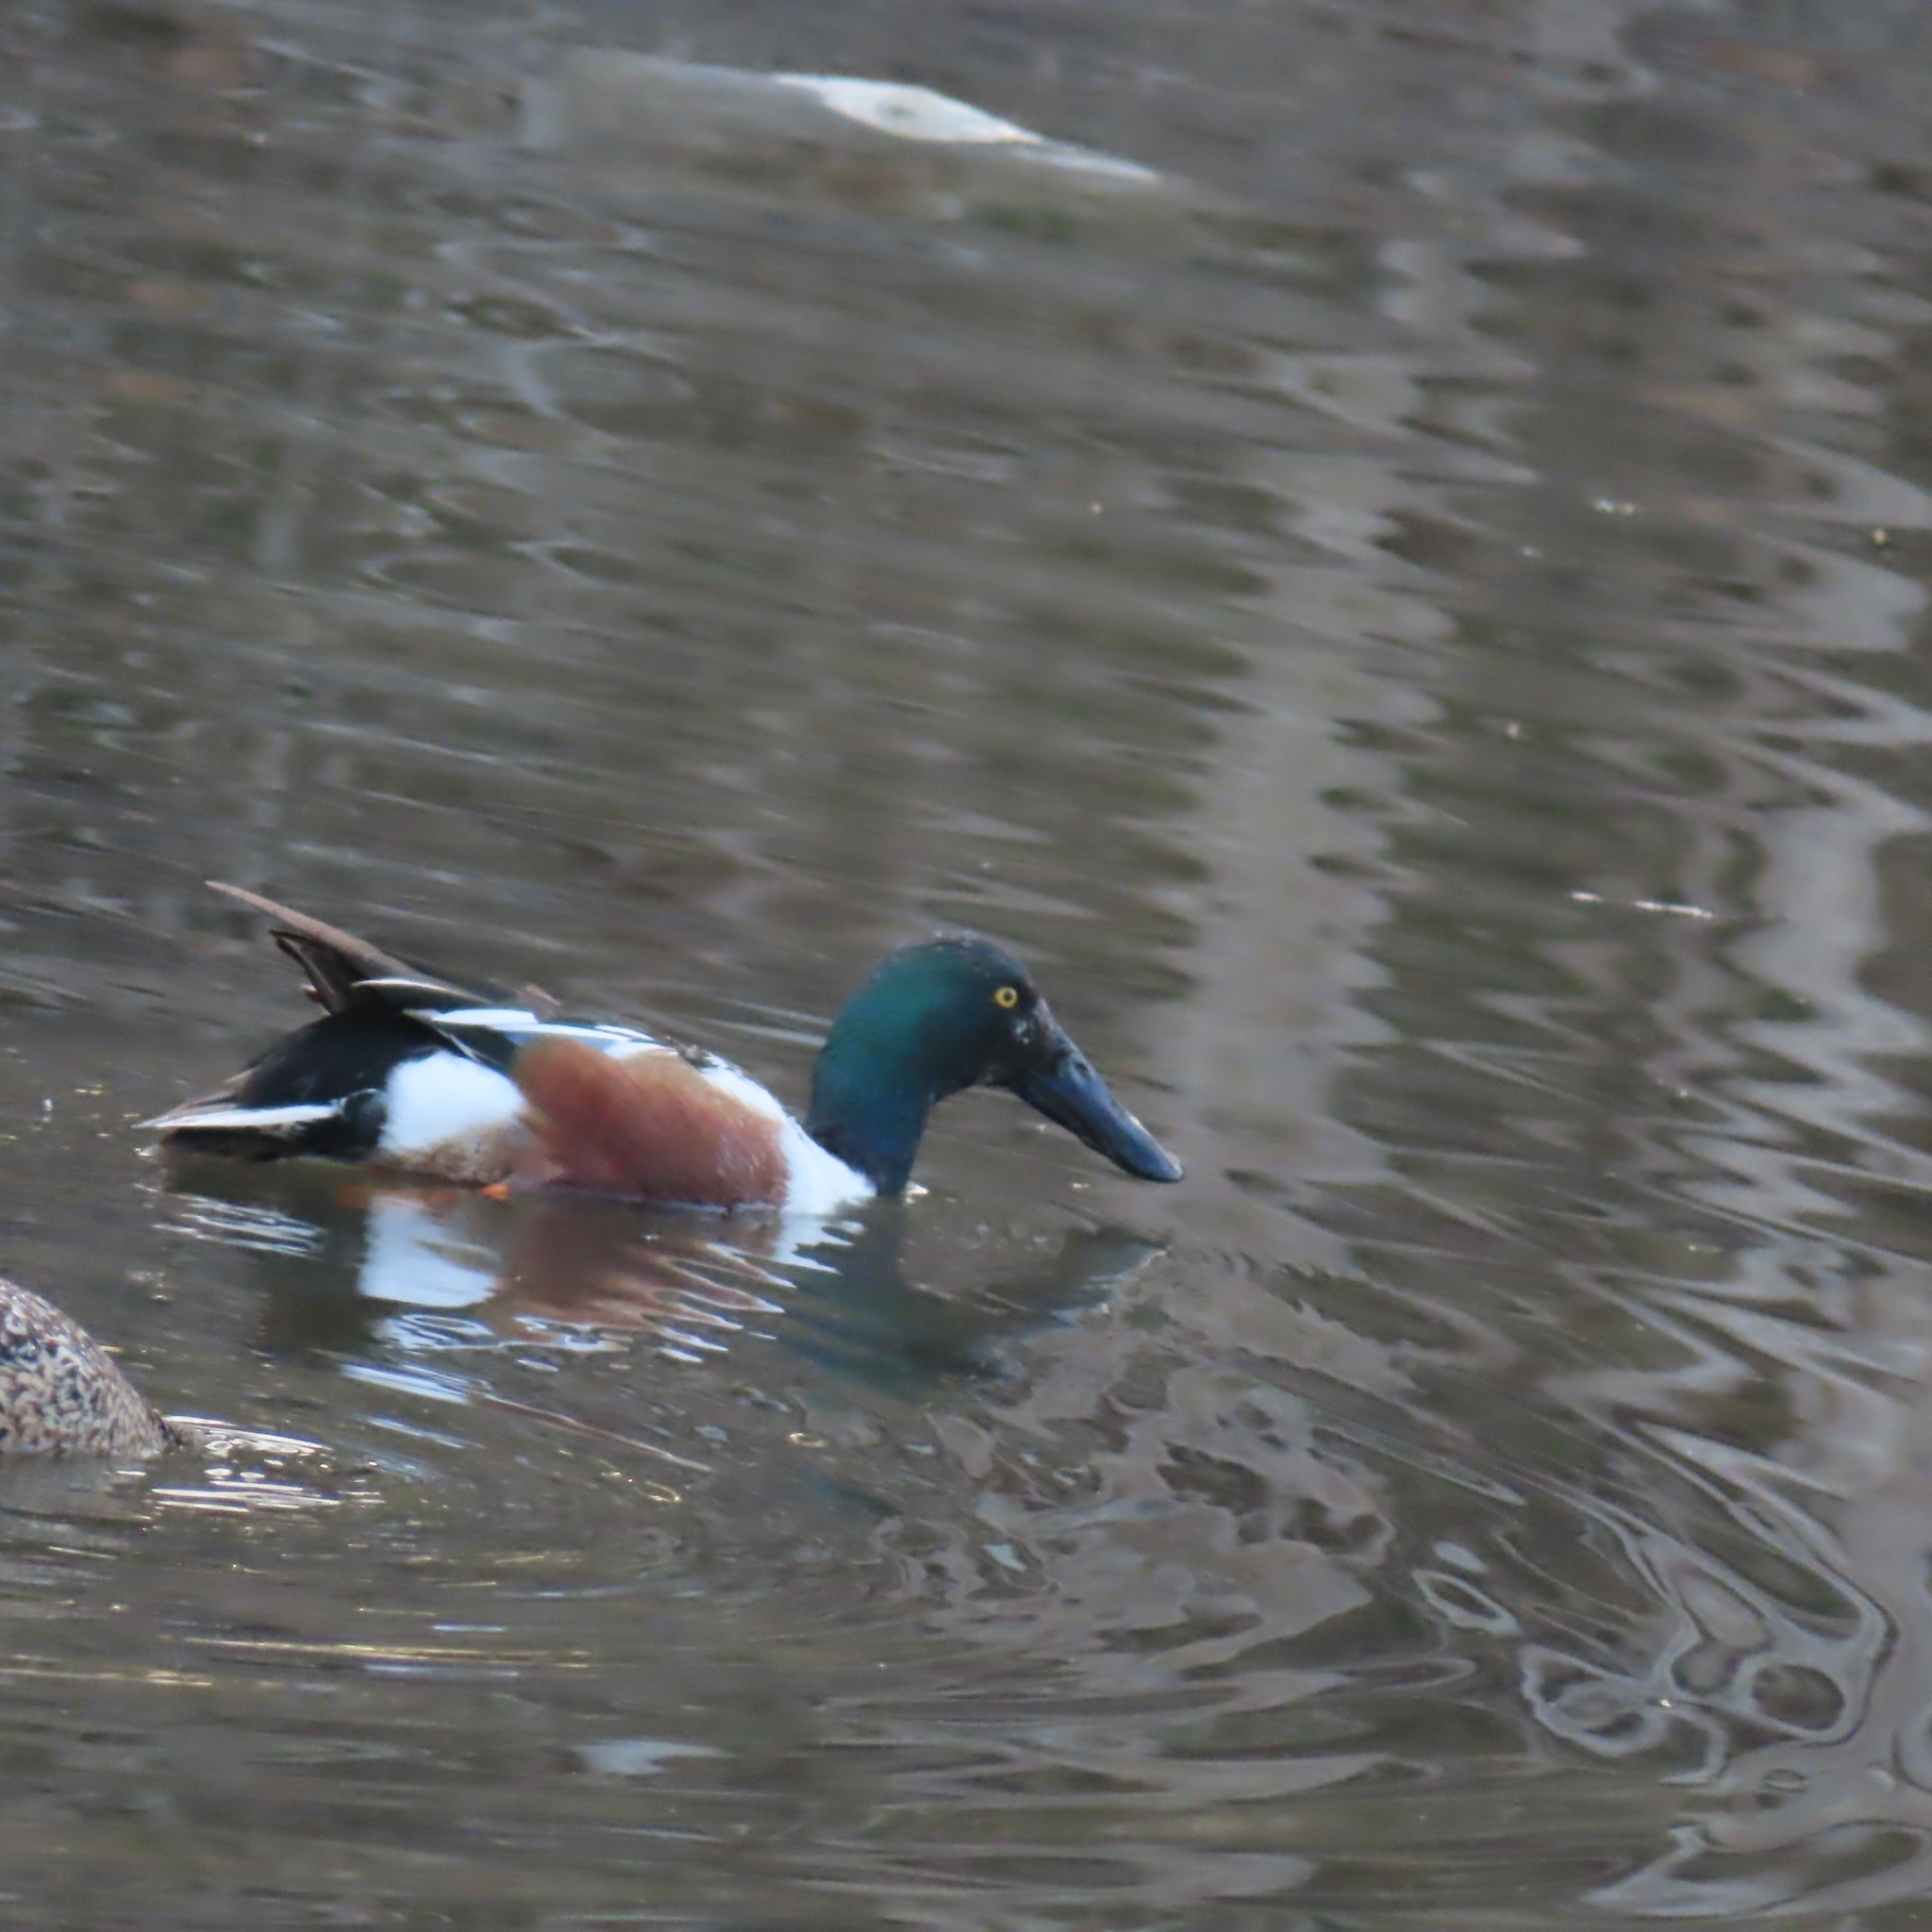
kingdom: Animalia
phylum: Chordata
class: Aves
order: Anseriformes
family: Anatidae
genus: Spatula
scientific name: Spatula clypeata
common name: Northern shoveler
